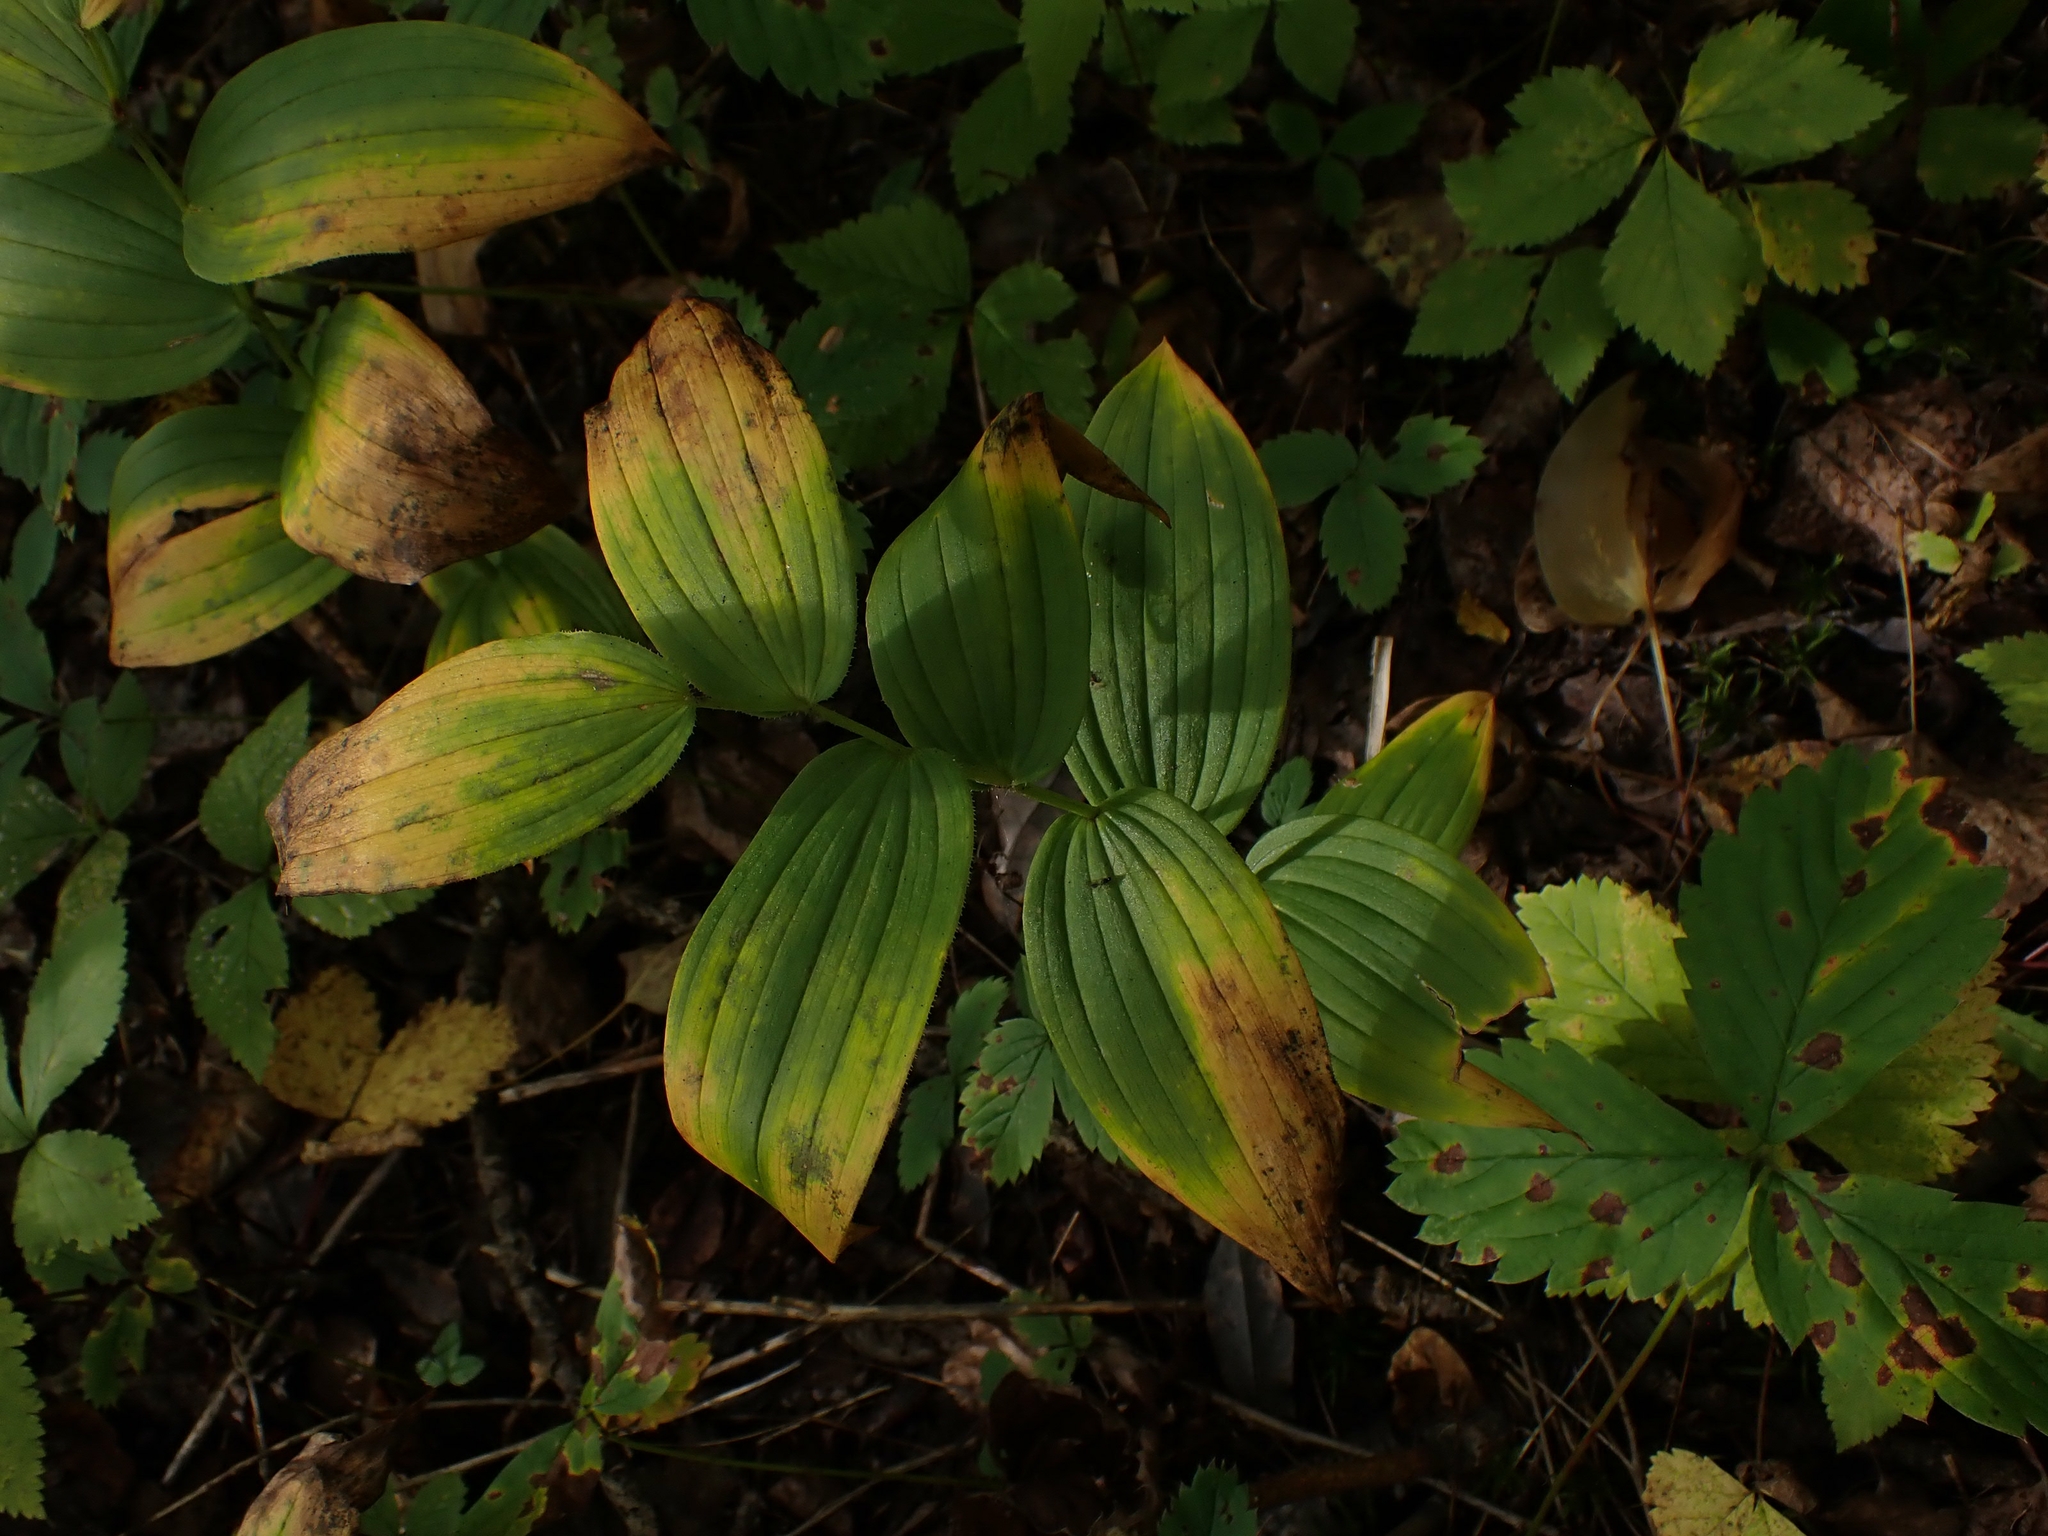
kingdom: Plantae
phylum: Tracheophyta
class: Liliopsida
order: Liliales
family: Liliaceae
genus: Streptopus
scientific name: Streptopus lanceolatus
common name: Rose mandarin
